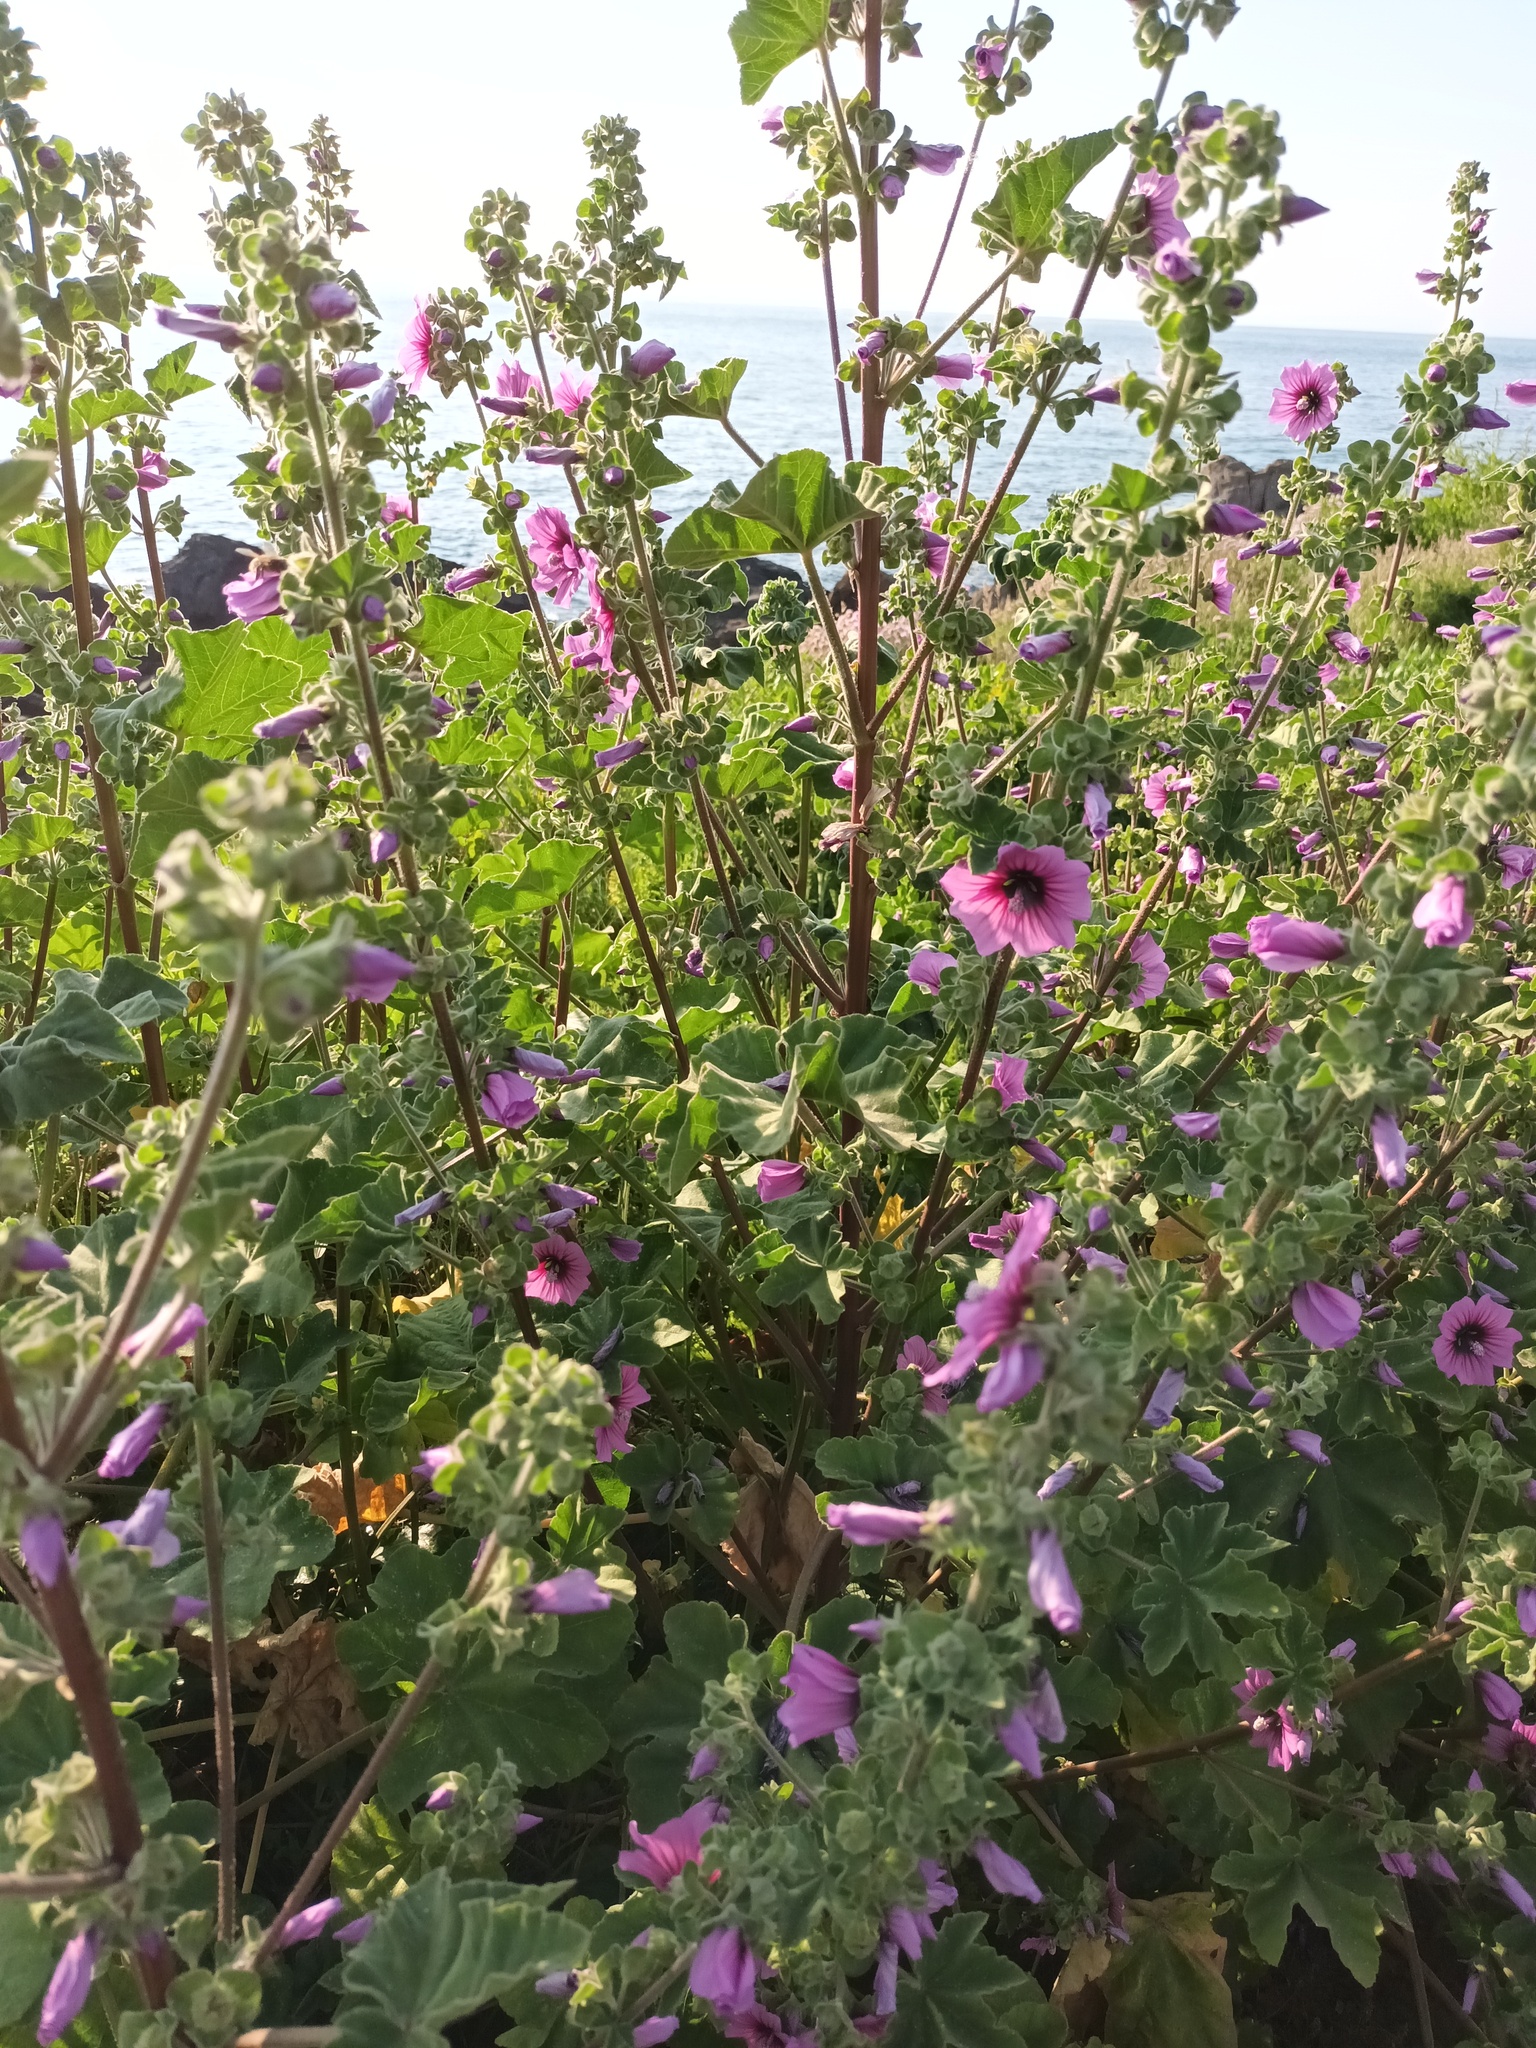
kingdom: Plantae
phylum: Tracheophyta
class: Magnoliopsida
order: Malvales
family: Malvaceae
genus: Malva
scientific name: Malva arborea
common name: Tree mallow
